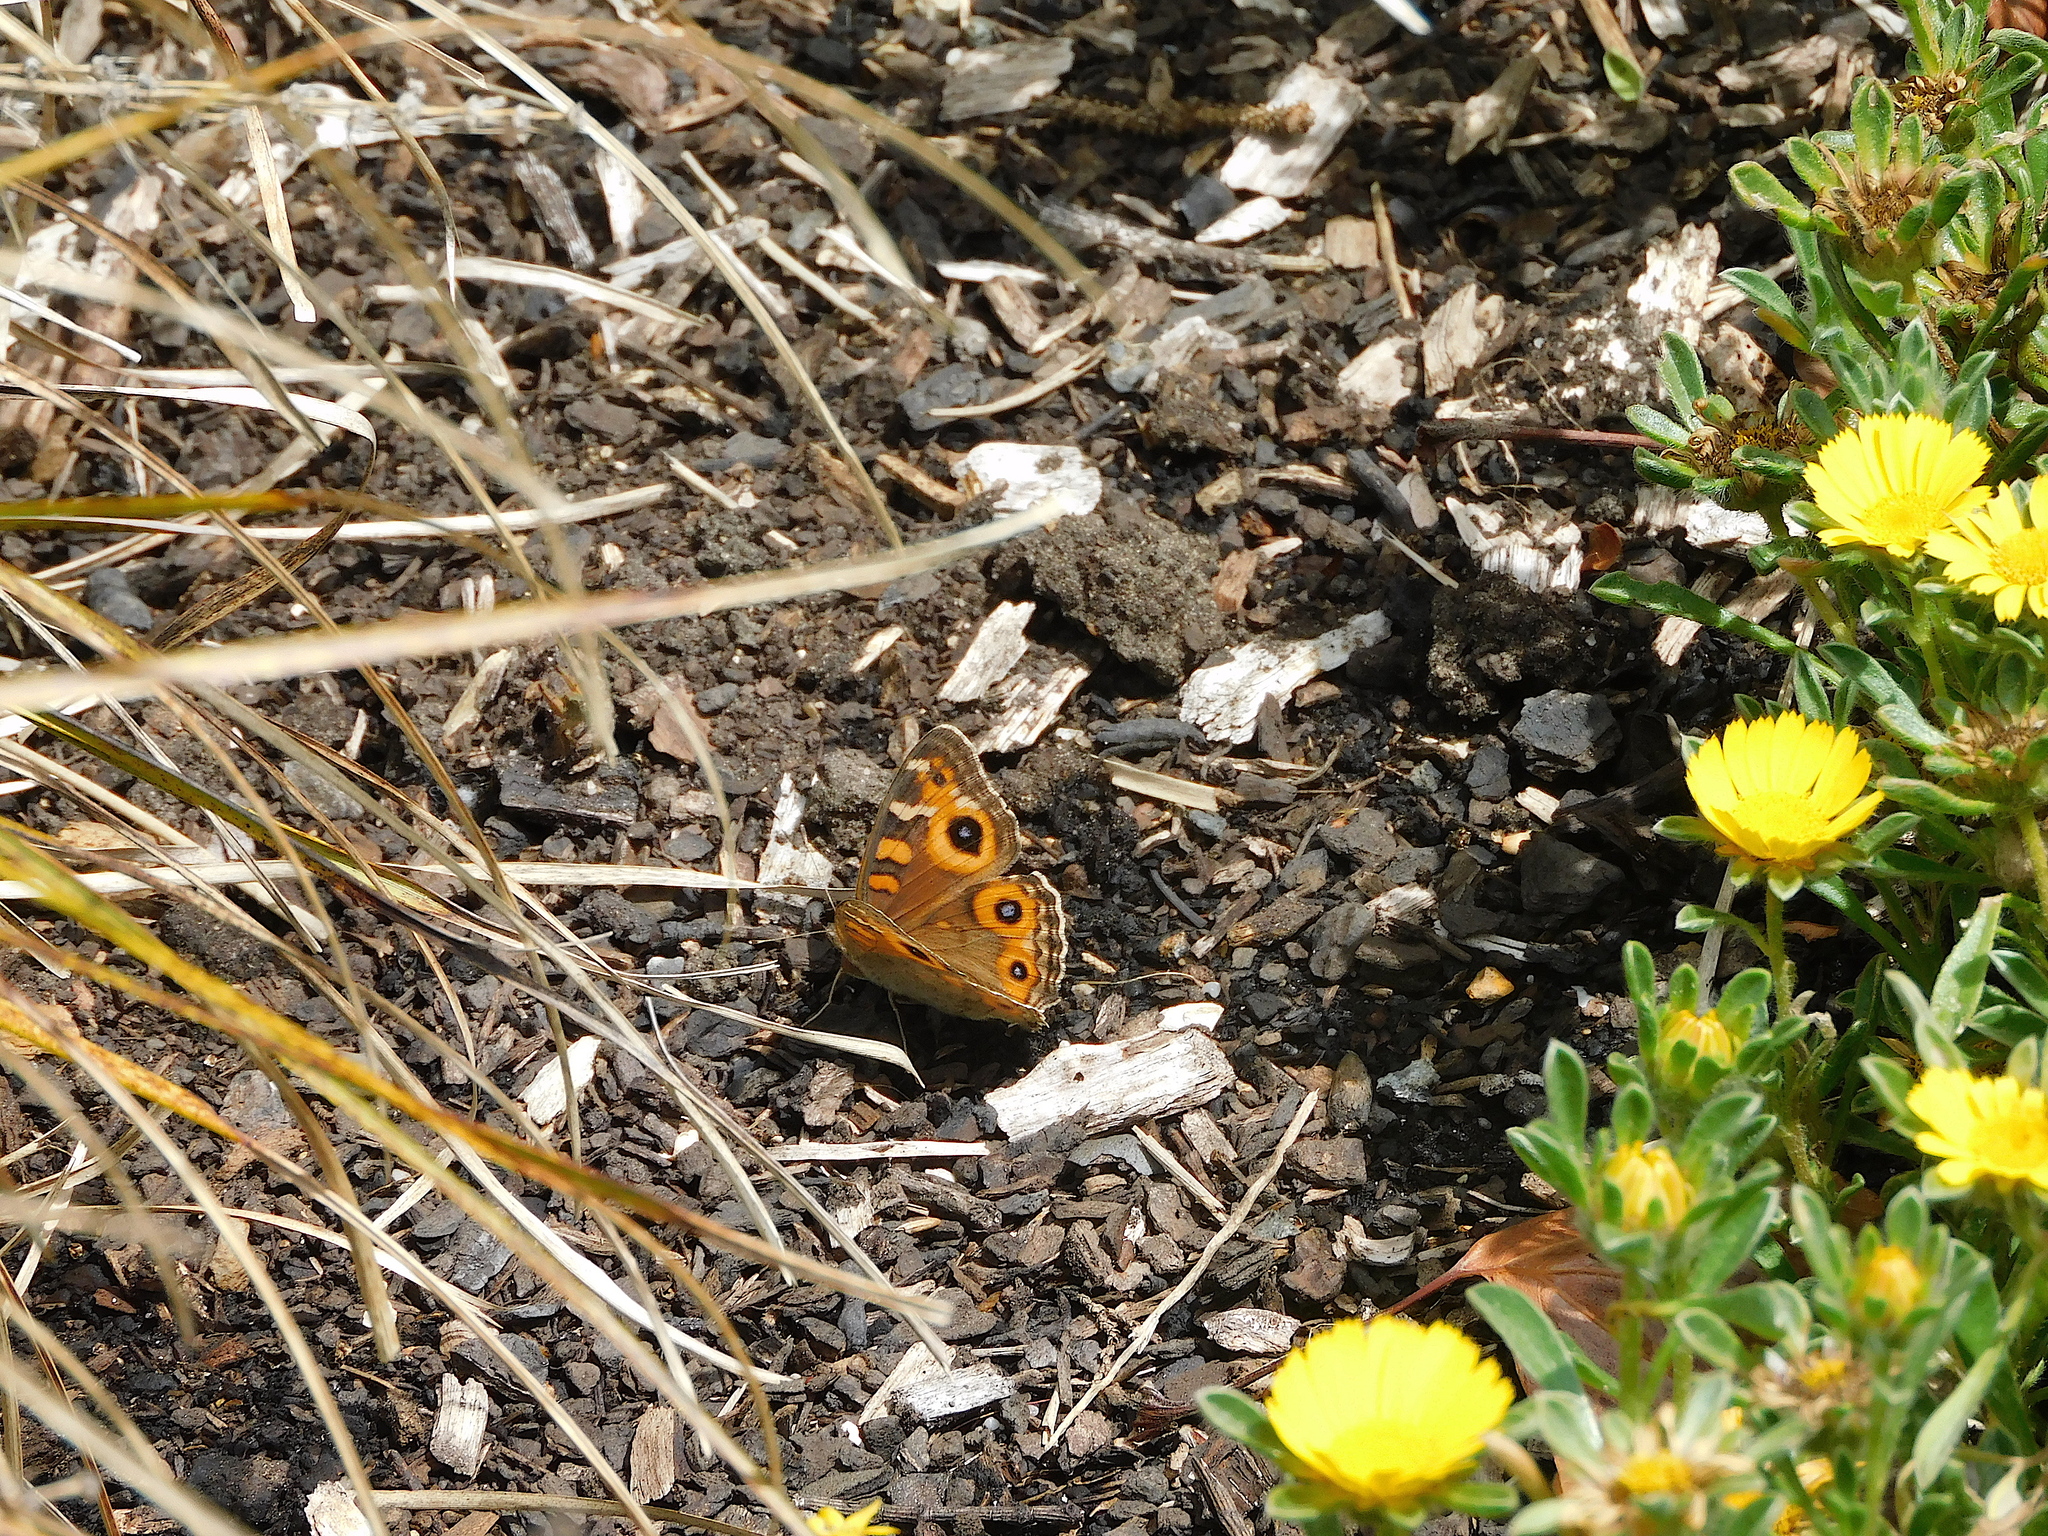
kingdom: Animalia
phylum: Arthropoda
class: Insecta
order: Lepidoptera
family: Nymphalidae
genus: Junonia
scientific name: Junonia villida
